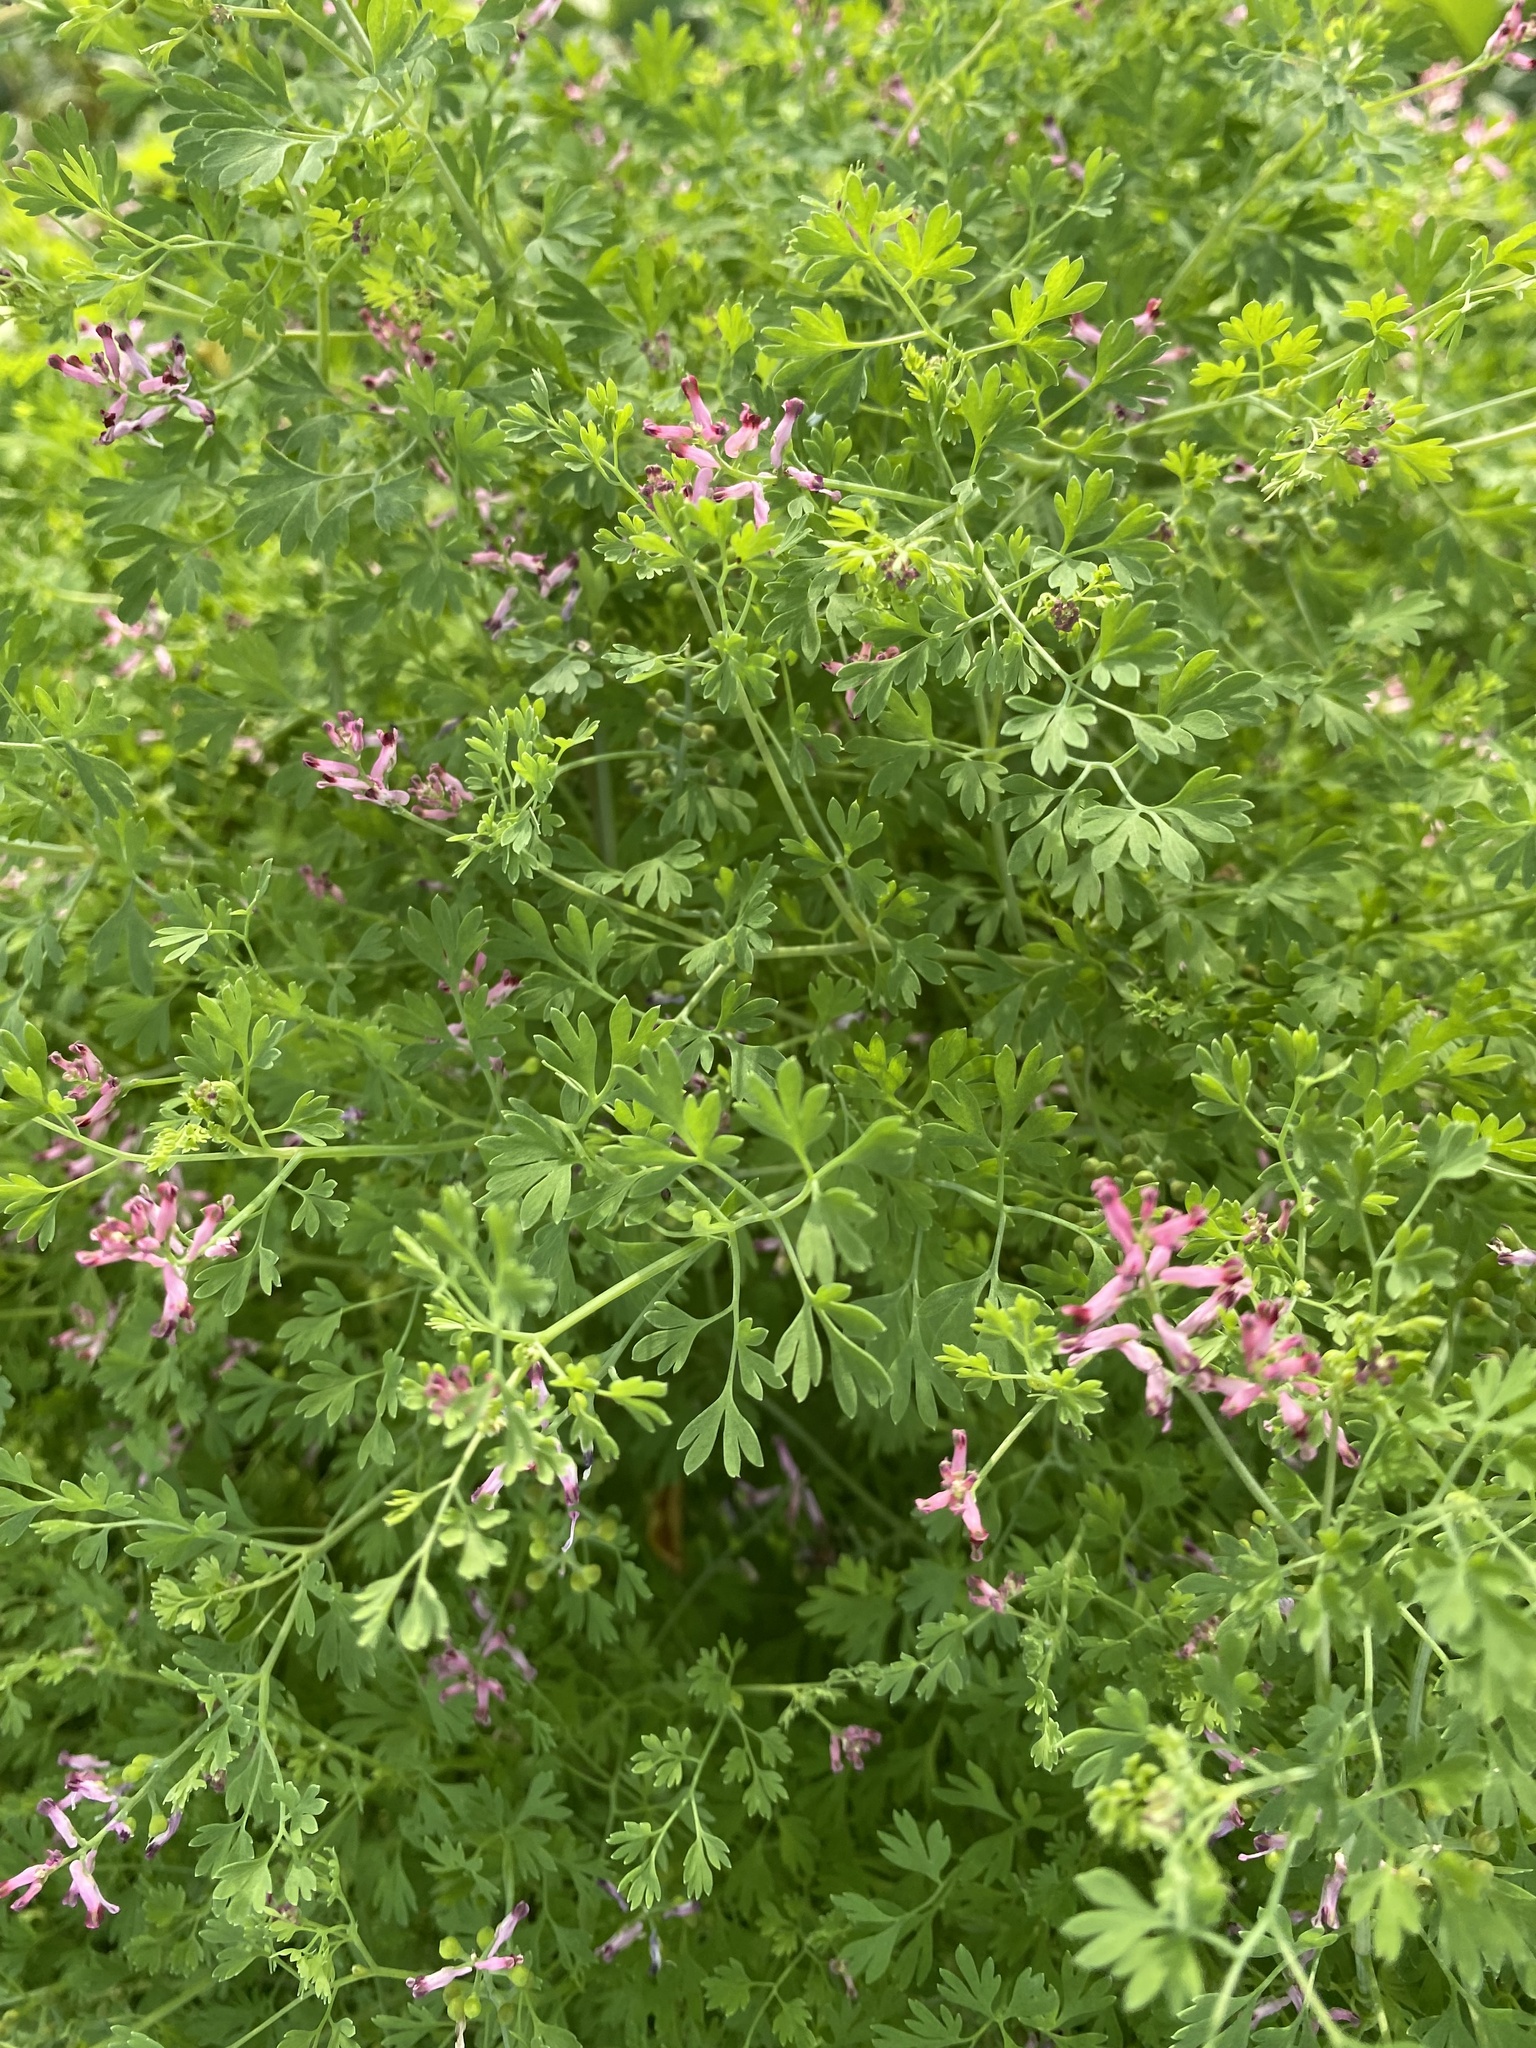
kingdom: Plantae
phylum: Tracheophyta
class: Magnoliopsida
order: Ranunculales
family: Papaveraceae
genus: Fumaria
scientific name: Fumaria officinalis
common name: Common fumitory
